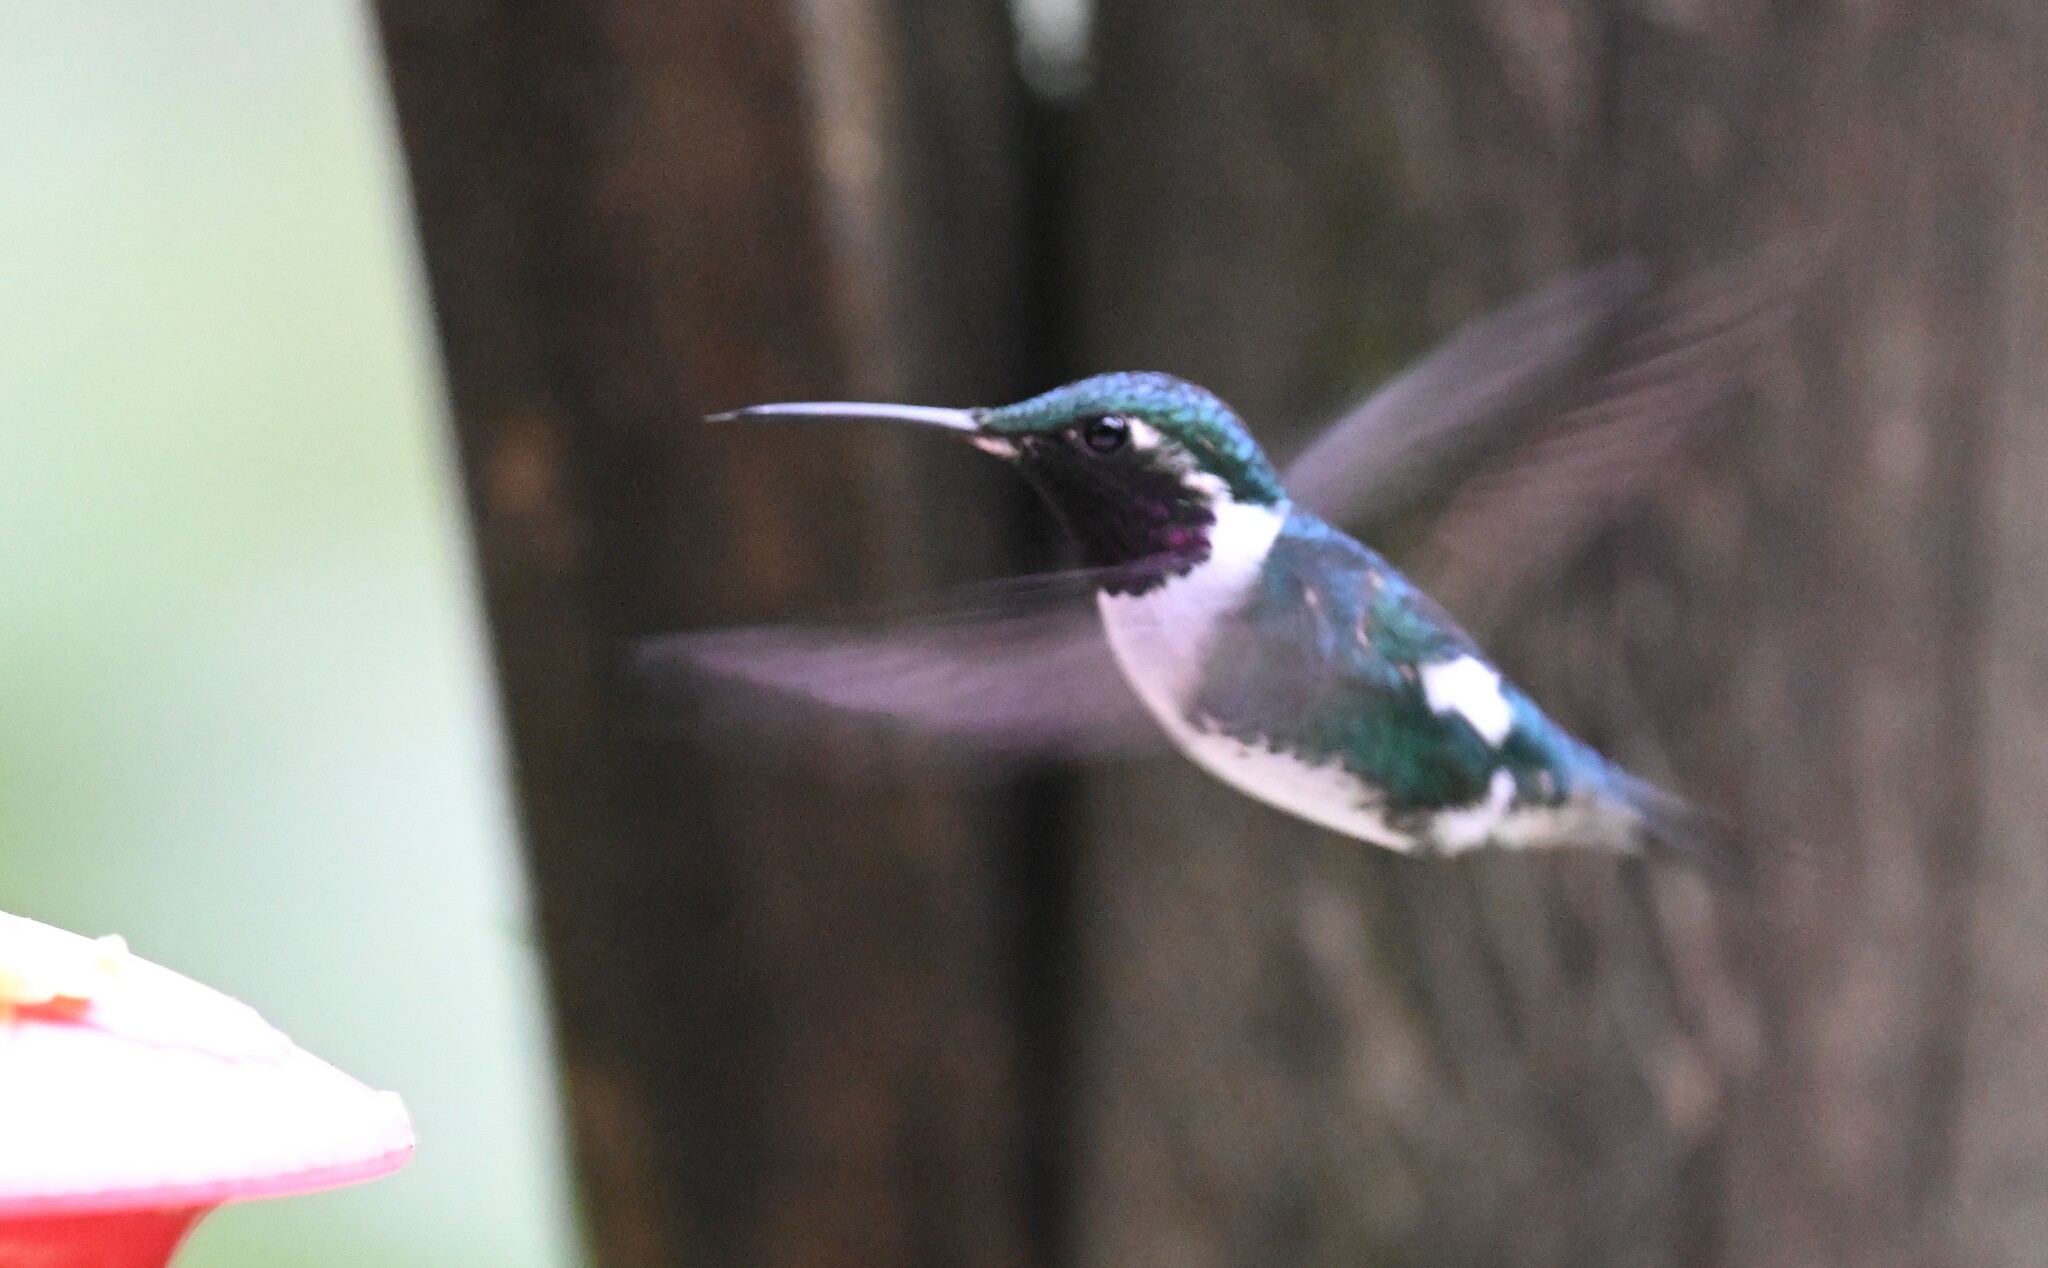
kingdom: Animalia
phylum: Chordata
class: Aves
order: Apodiformes
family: Trochilidae
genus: Chaetocercus
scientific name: Chaetocercus mulsant
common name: White-bellied woodstar
